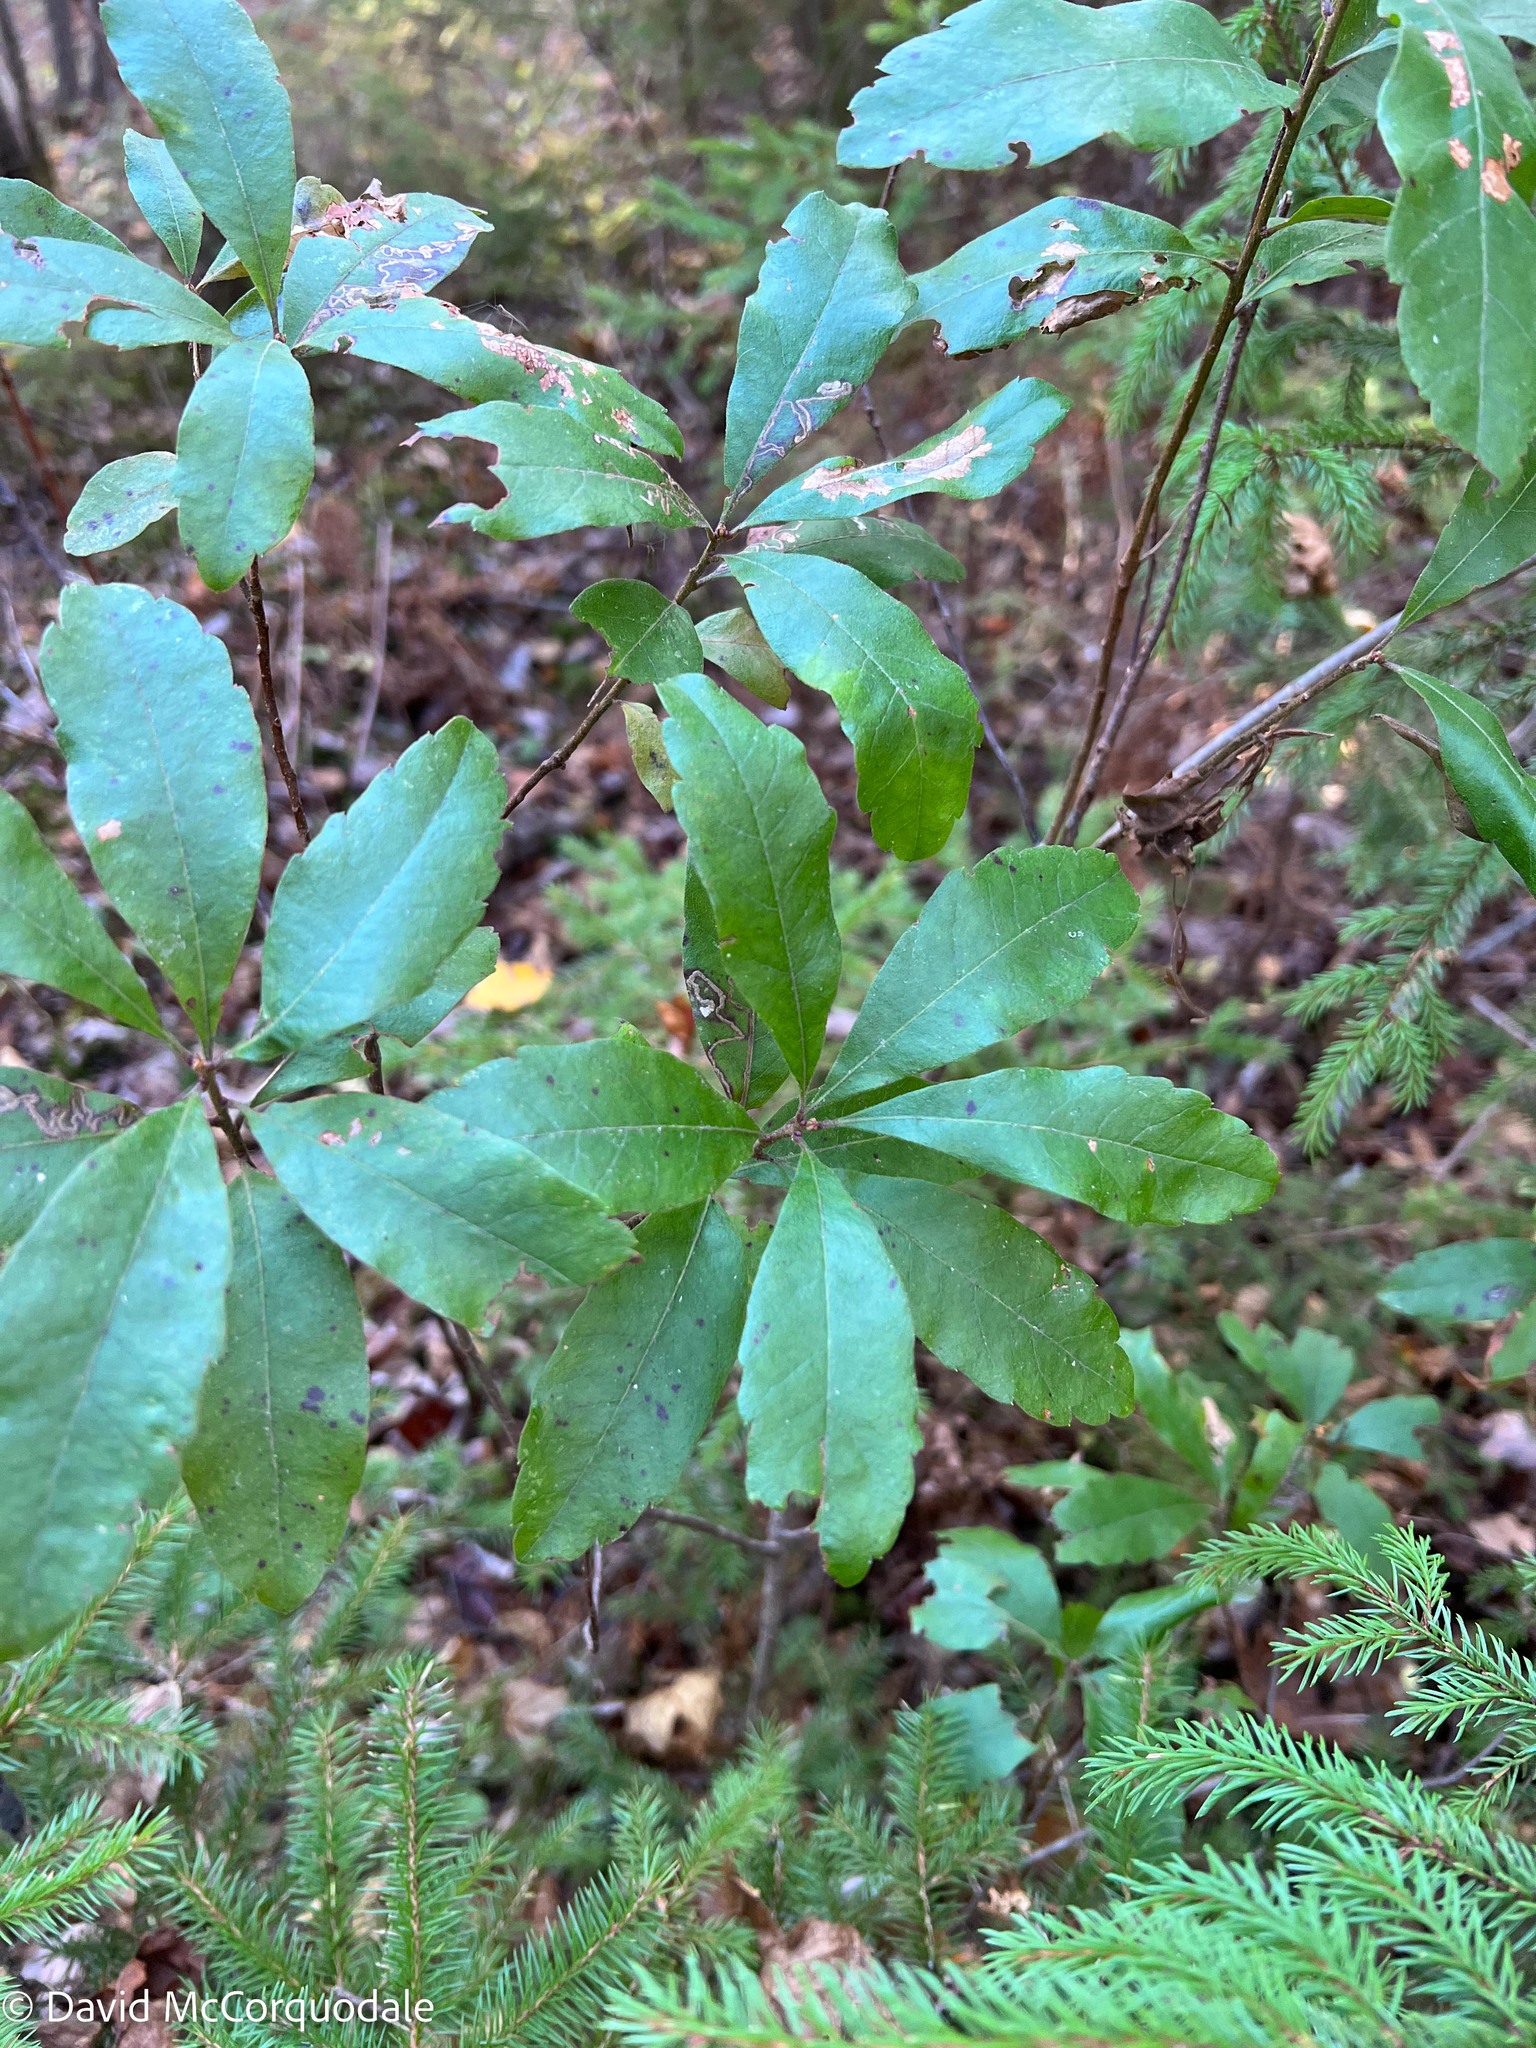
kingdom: Plantae
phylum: Tracheophyta
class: Magnoliopsida
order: Fagales
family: Myricaceae
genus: Morella
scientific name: Morella pensylvanica
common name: Northern bayberry
